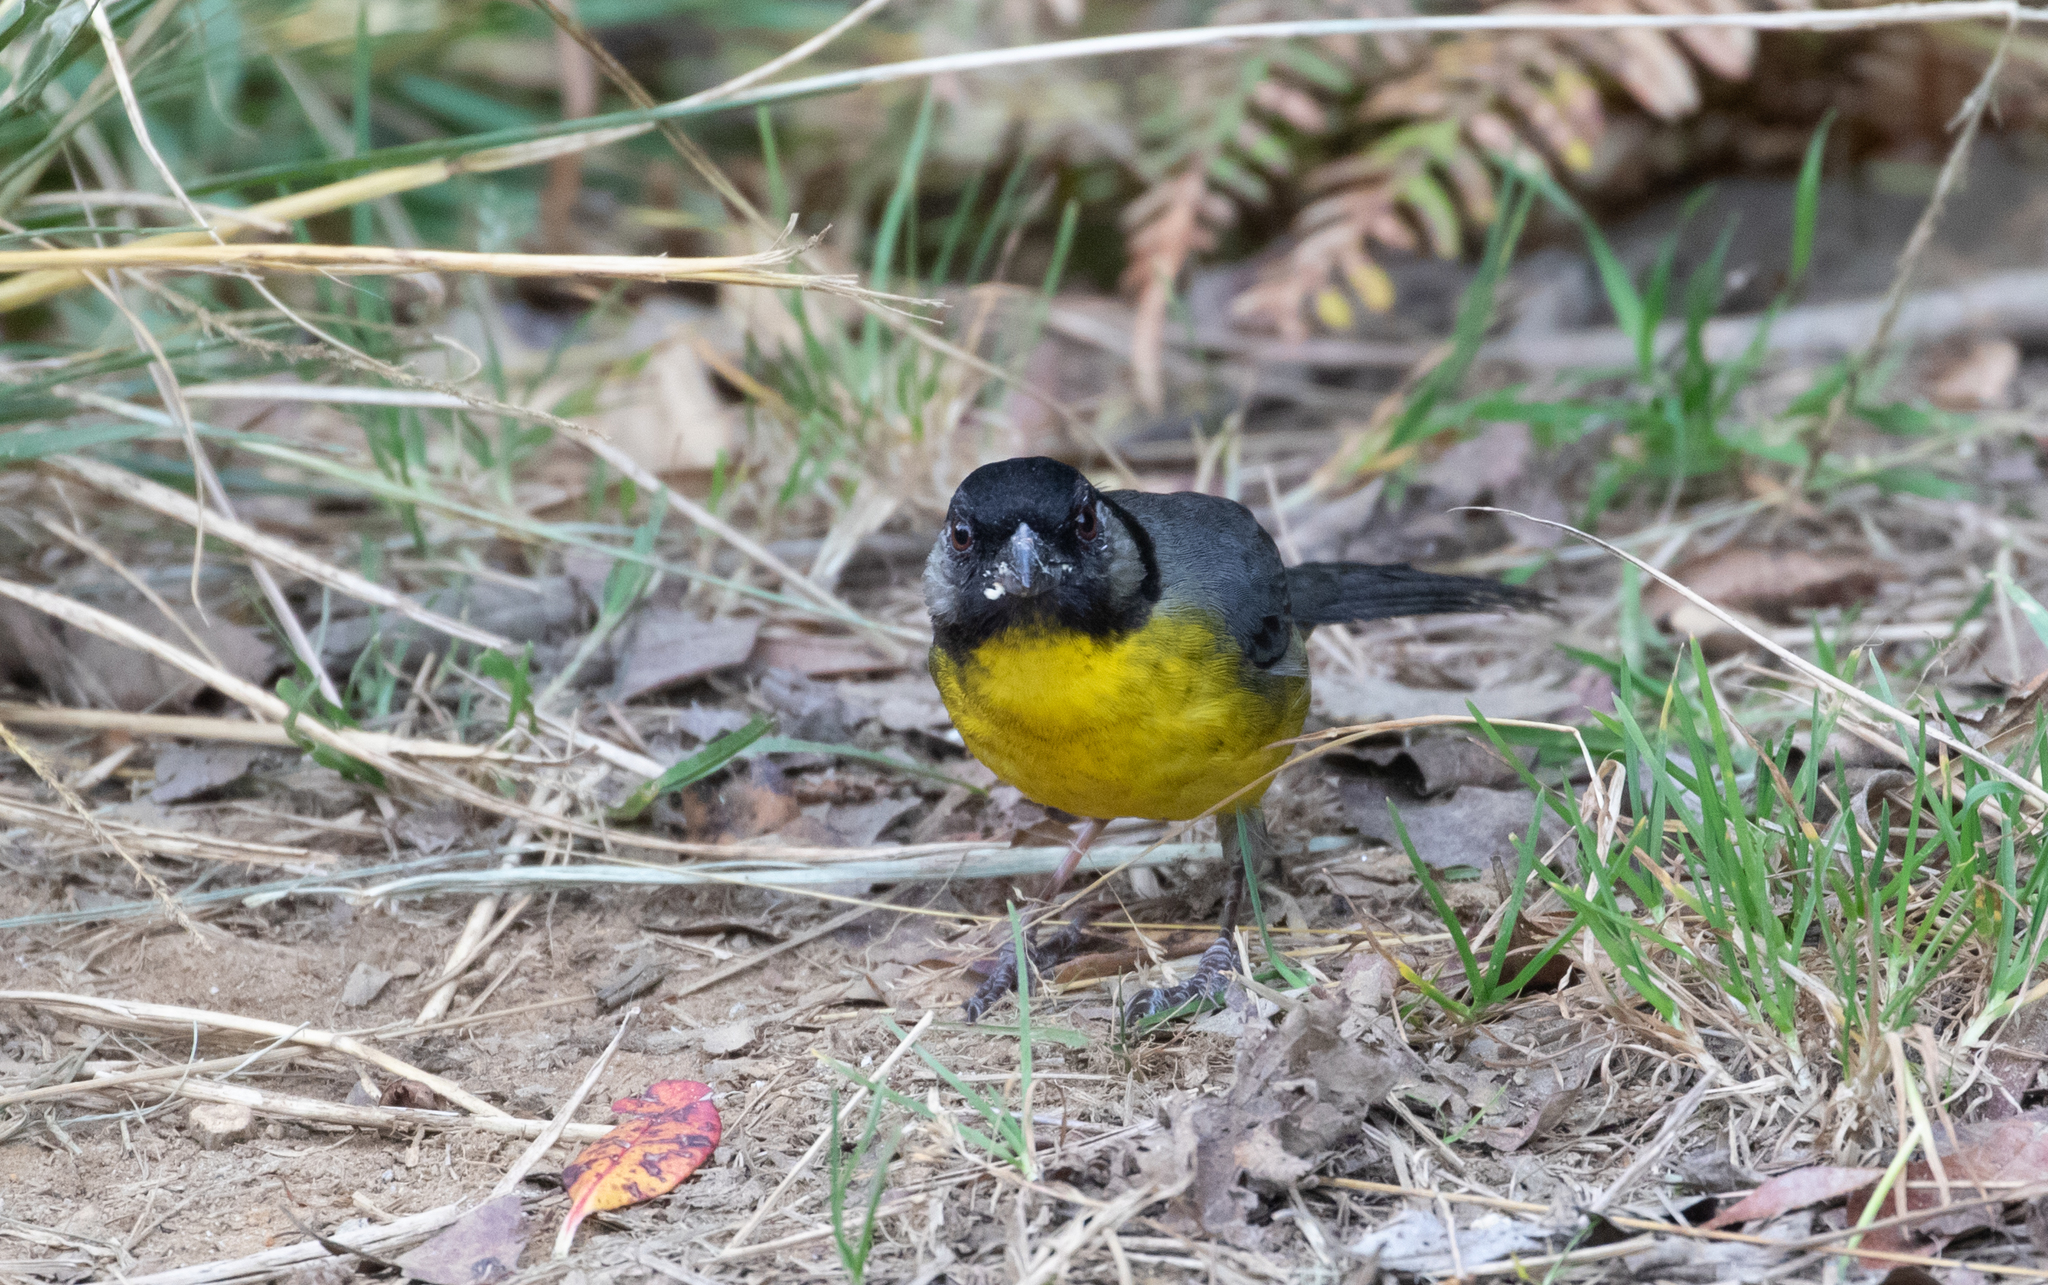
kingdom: Animalia
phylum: Chordata
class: Aves
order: Passeriformes
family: Passerellidae
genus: Atlapetes
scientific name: Atlapetes melanocephalus
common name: Santa marta brush-finch
